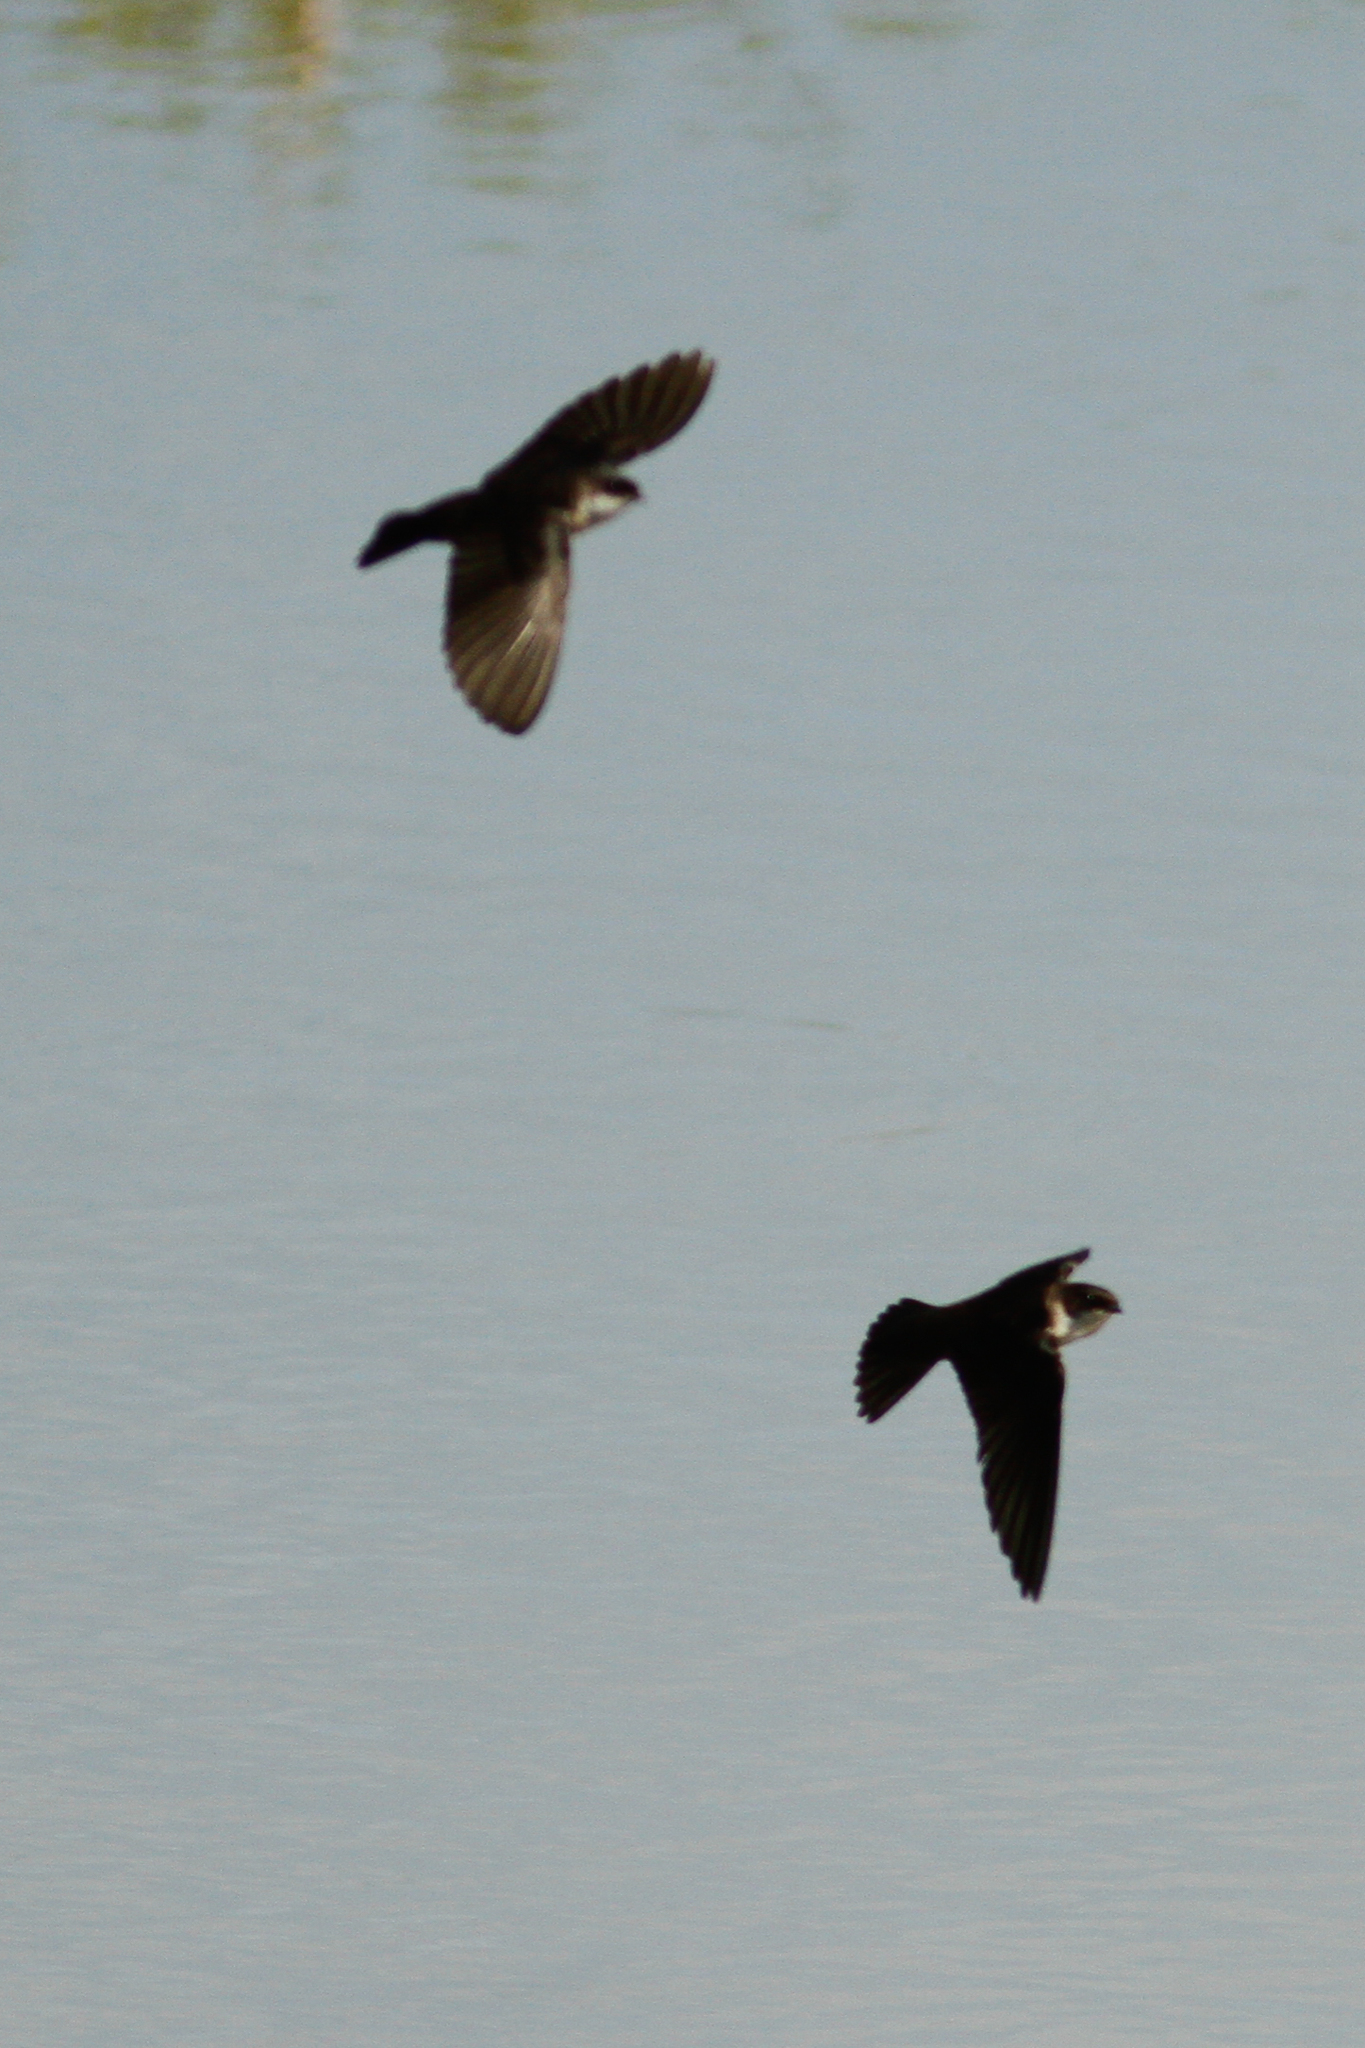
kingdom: Animalia
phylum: Chordata
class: Aves
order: Passeriformes
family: Hirundinidae
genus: Notiochelidon
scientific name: Notiochelidon cyanoleuca
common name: Blue-and-white swallow
